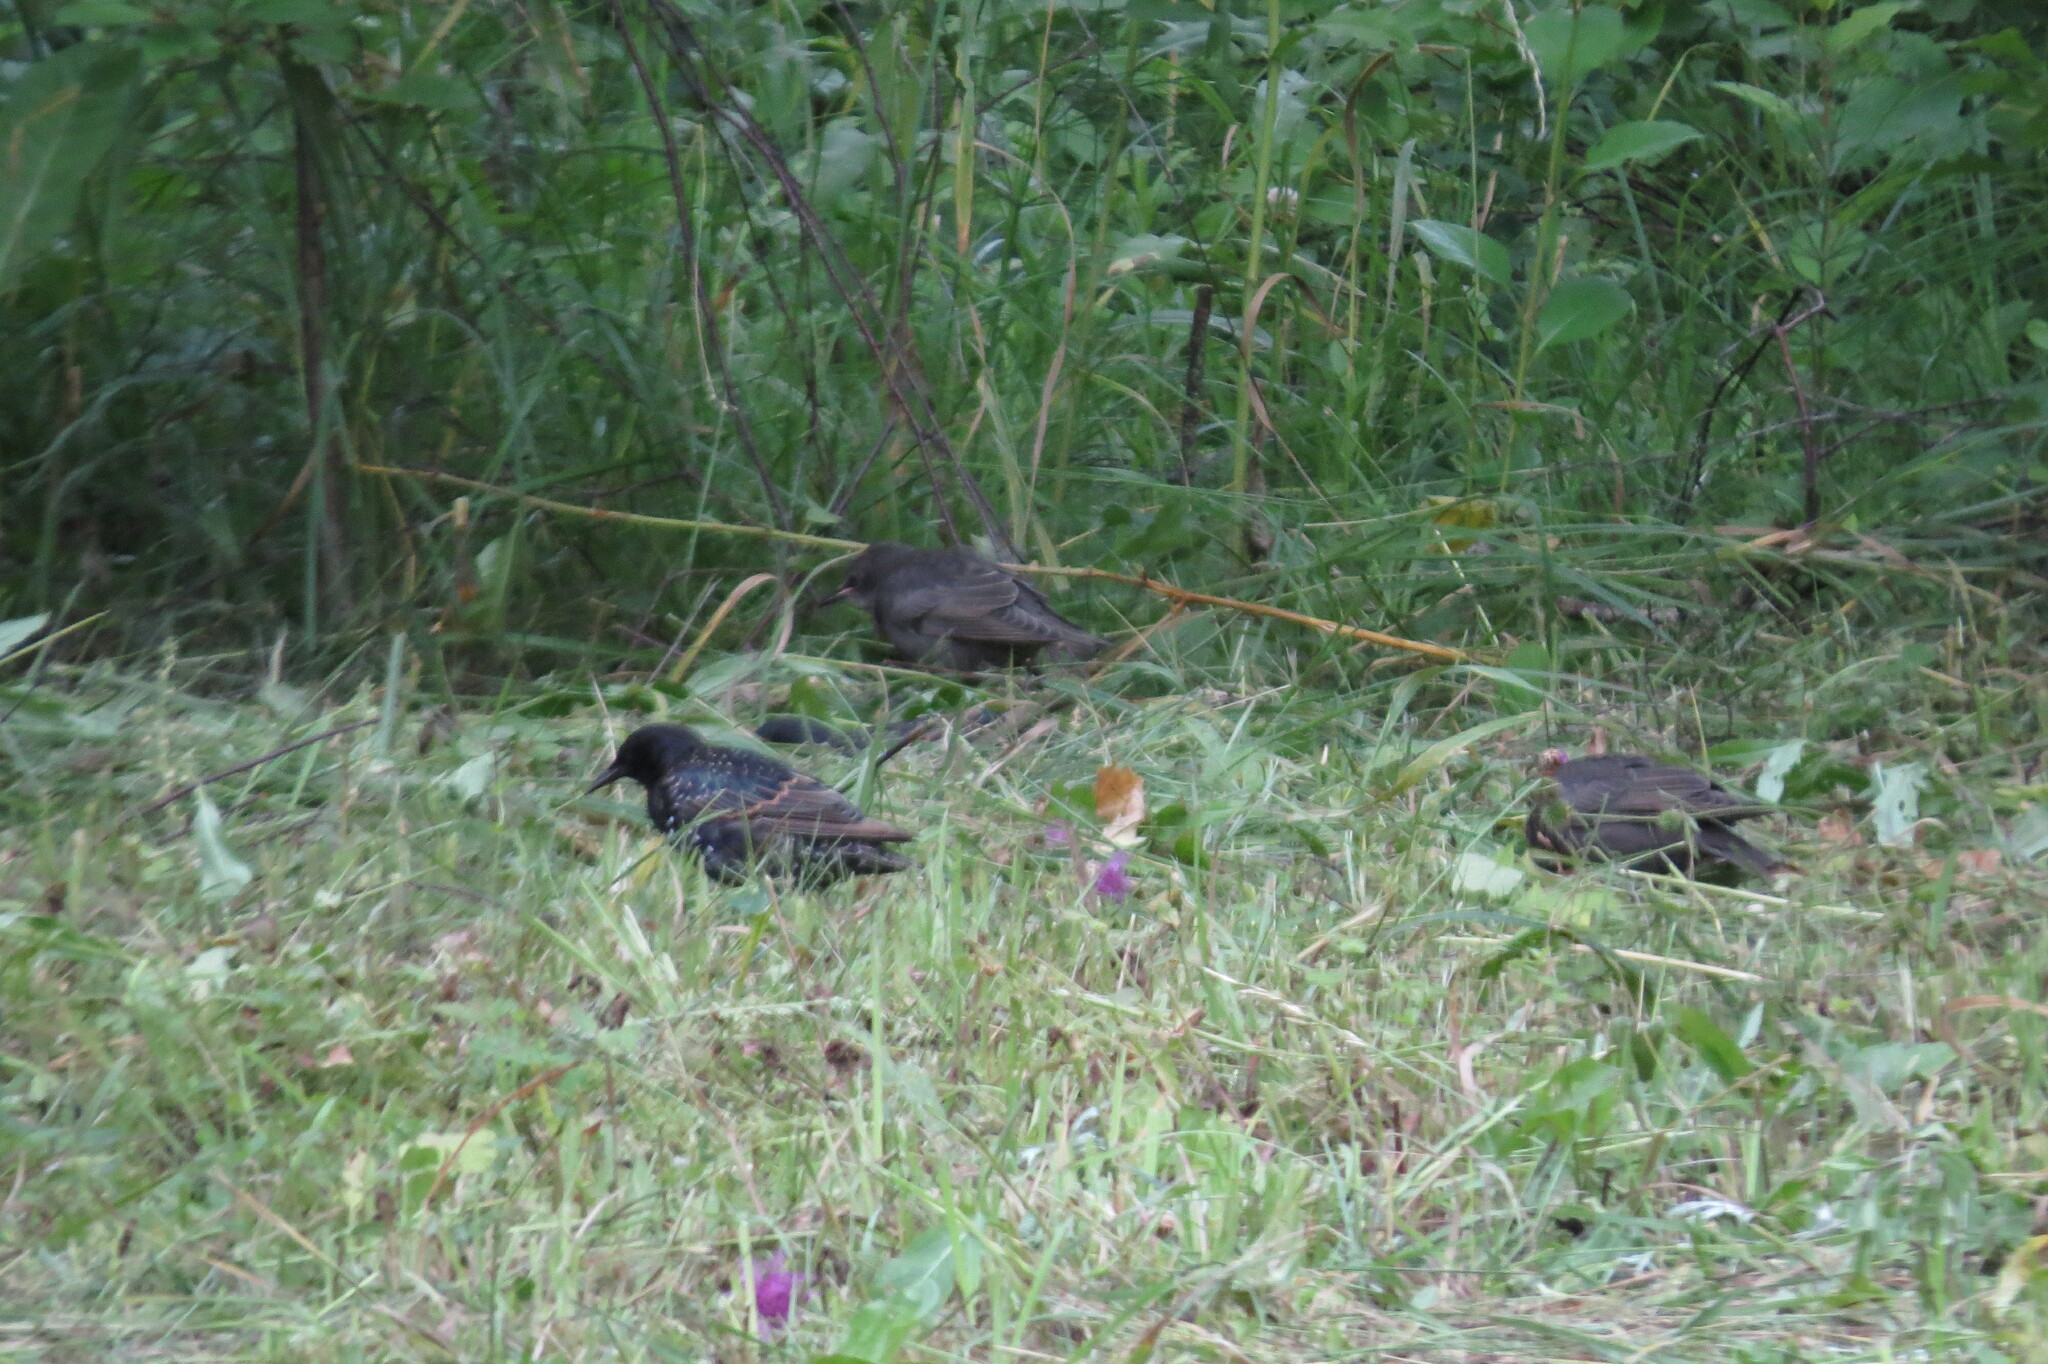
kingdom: Animalia
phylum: Chordata
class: Aves
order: Passeriformes
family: Sturnidae
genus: Sturnus
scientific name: Sturnus vulgaris
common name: Common starling
